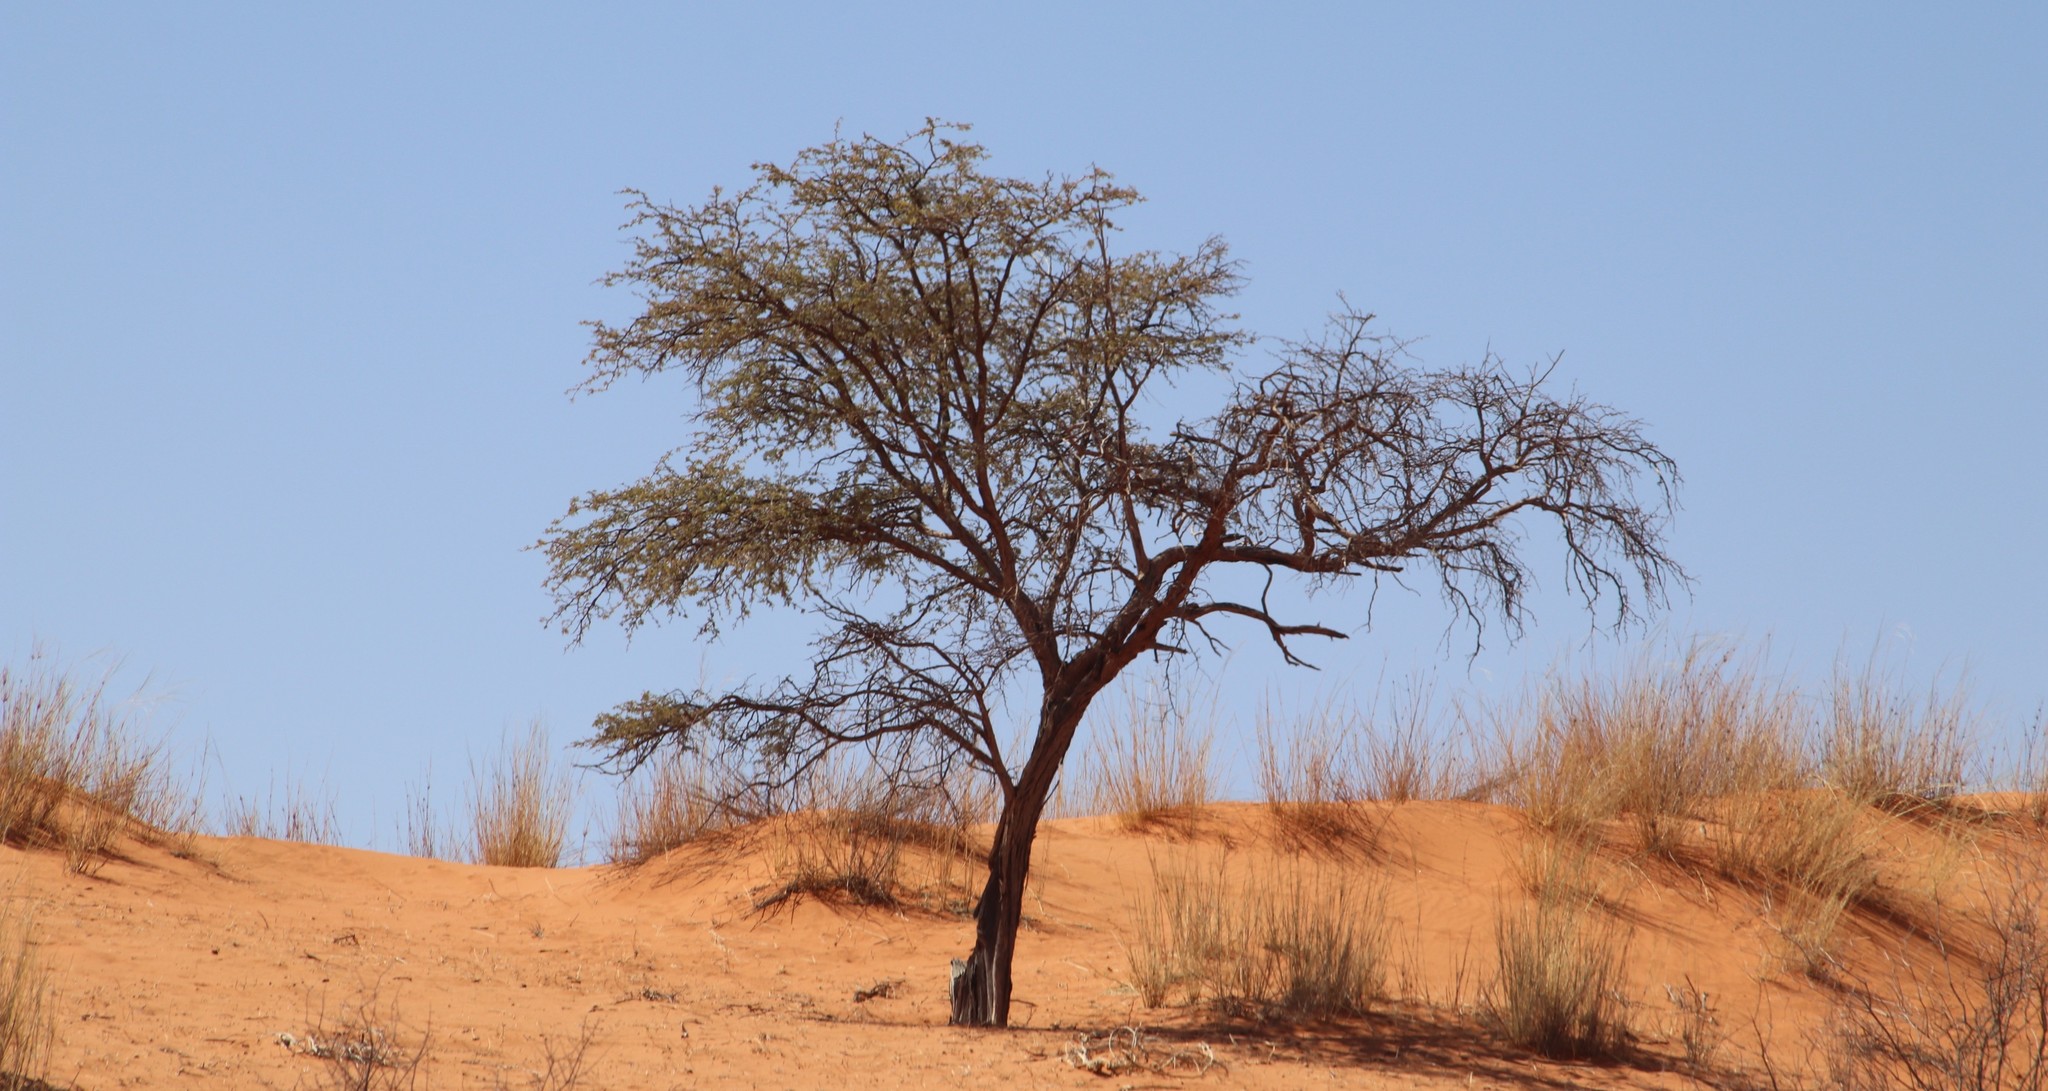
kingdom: Plantae
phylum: Tracheophyta
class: Magnoliopsida
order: Fabales
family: Fabaceae
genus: Vachellia
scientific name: Vachellia erioloba
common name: Camel thorn
